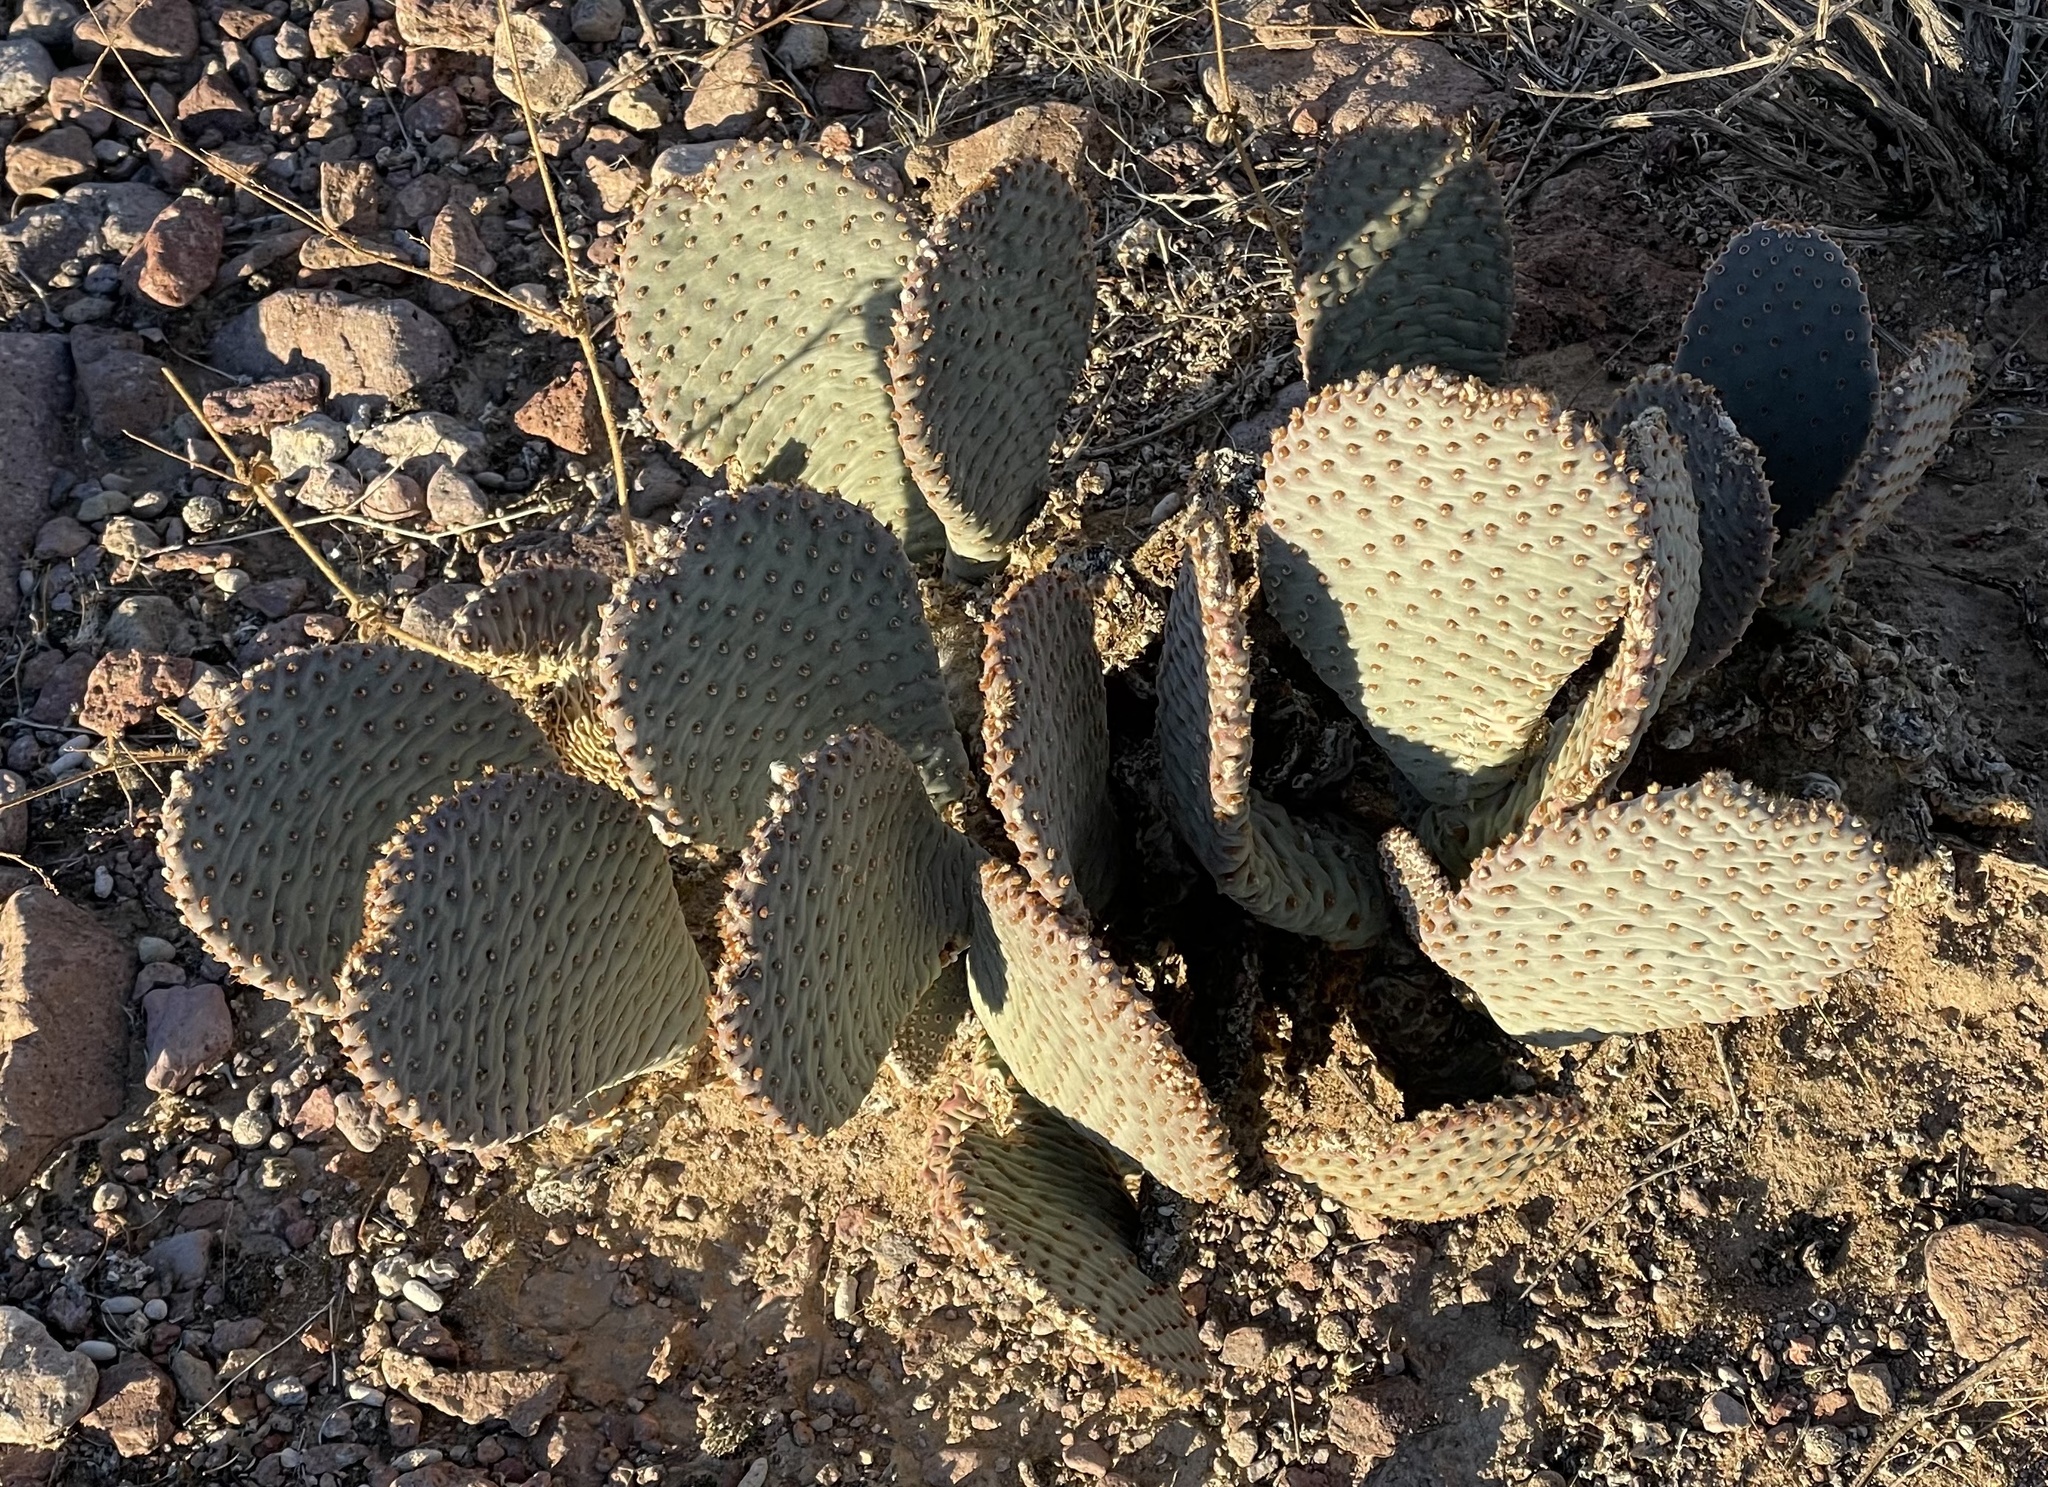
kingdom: Plantae
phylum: Tracheophyta
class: Magnoliopsida
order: Caryophyllales
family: Cactaceae
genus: Opuntia
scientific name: Opuntia basilaris
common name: Beavertail prickly-pear
